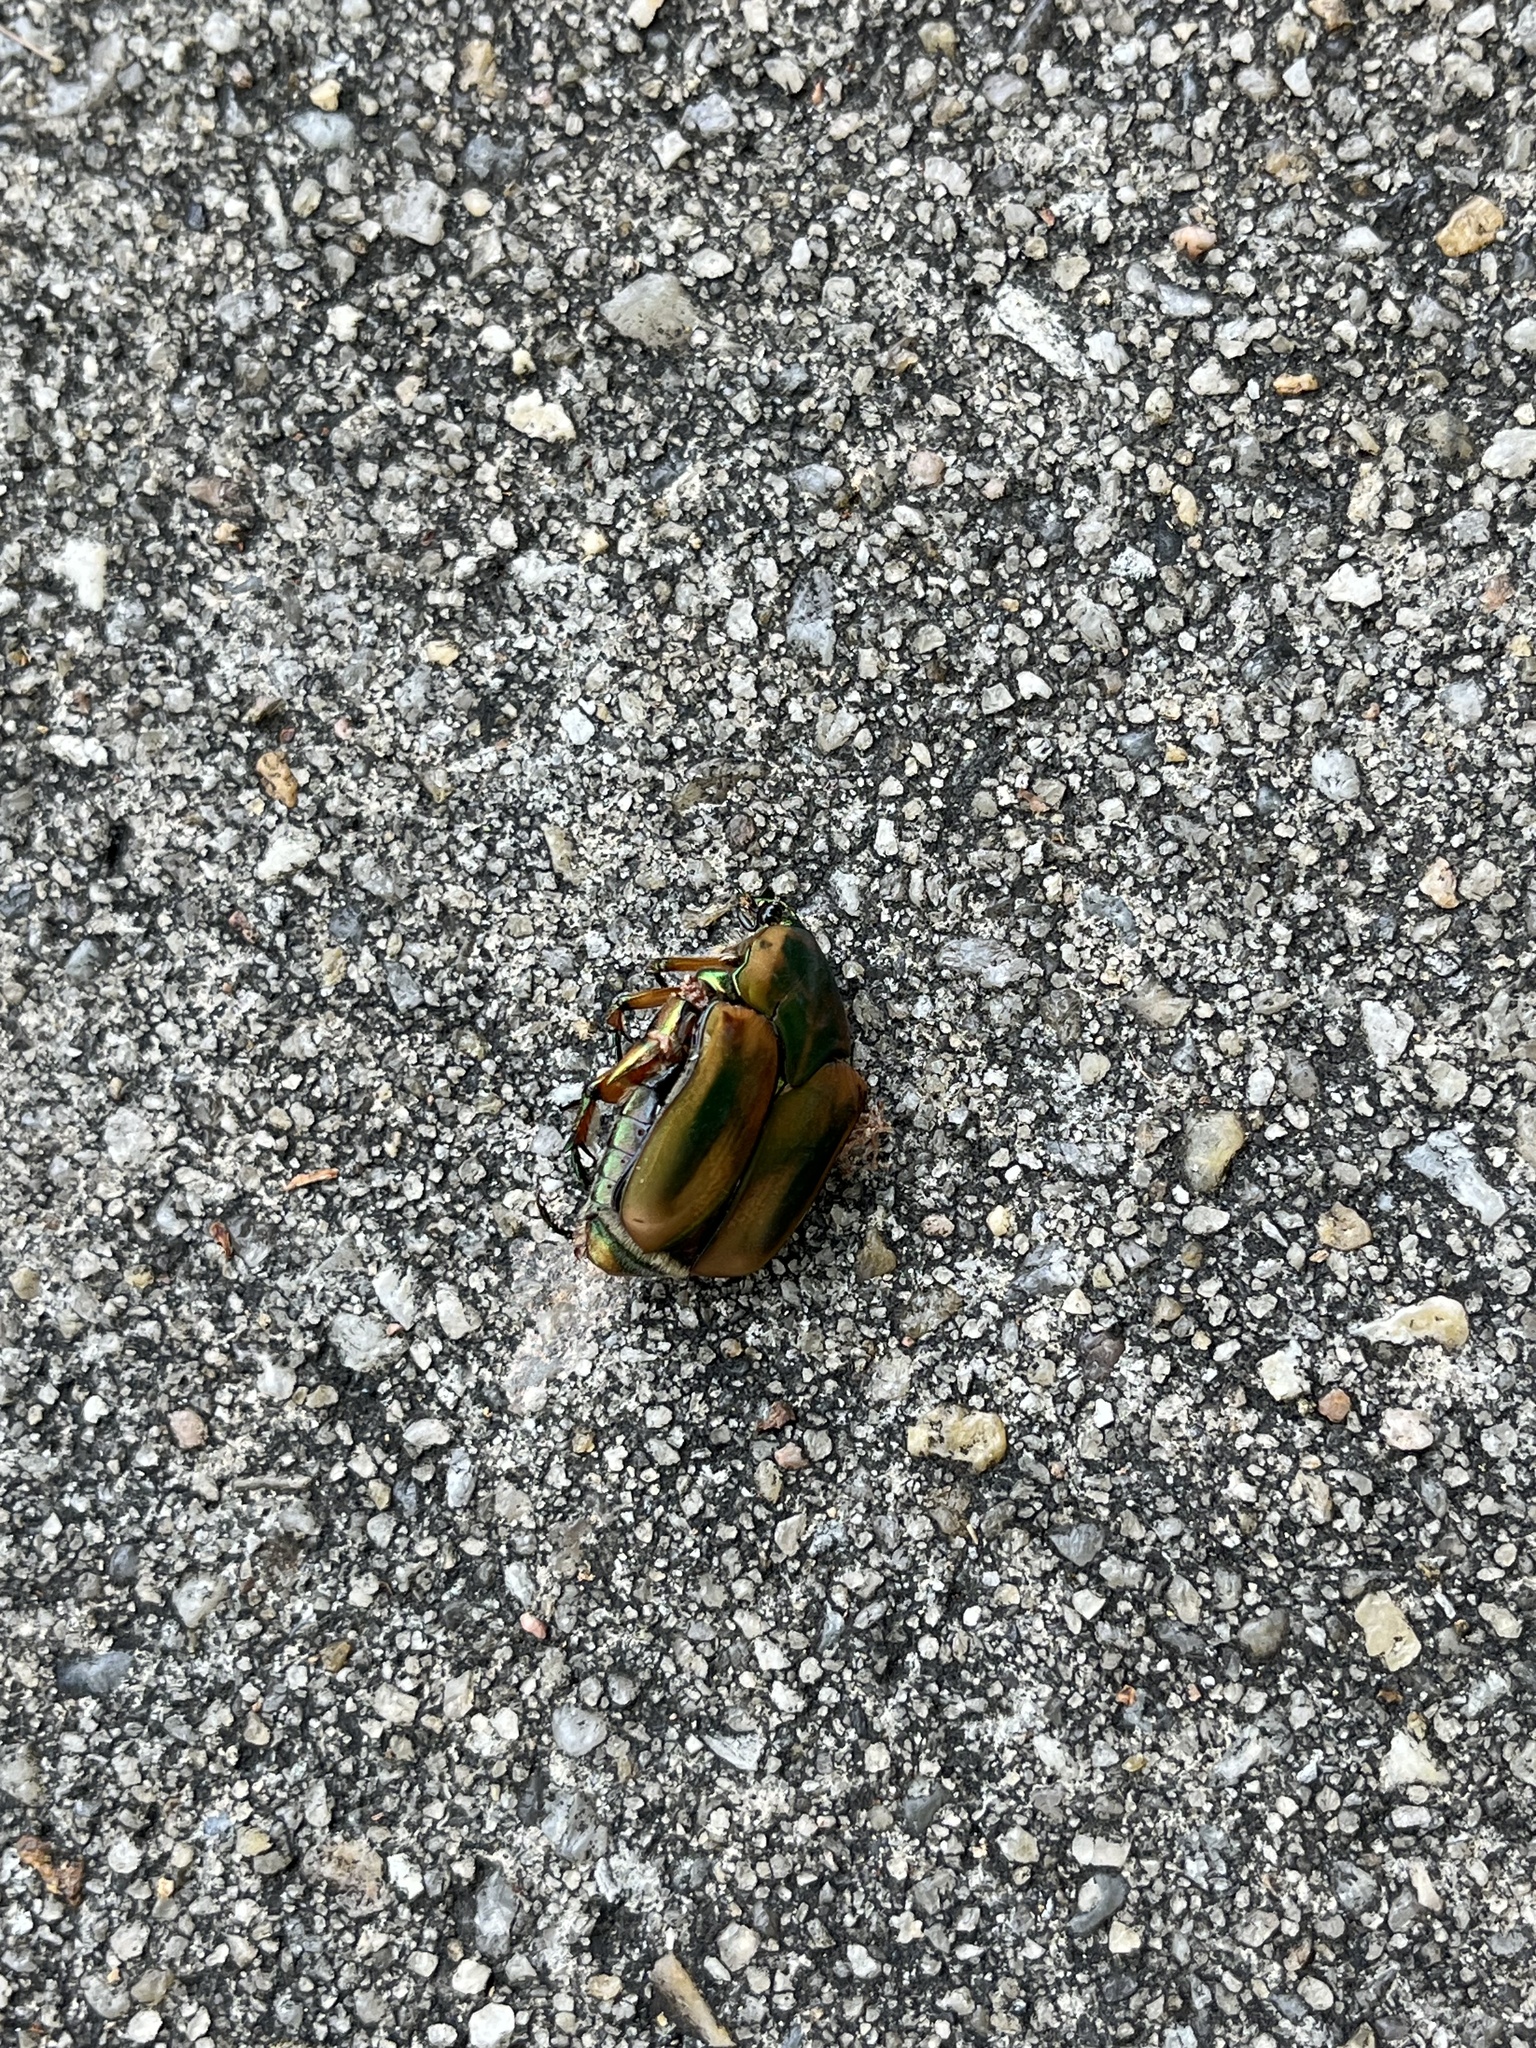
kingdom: Animalia
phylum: Arthropoda
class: Insecta
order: Coleoptera
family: Scarabaeidae
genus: Cotinis
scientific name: Cotinis nitida
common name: Common green june beetle
